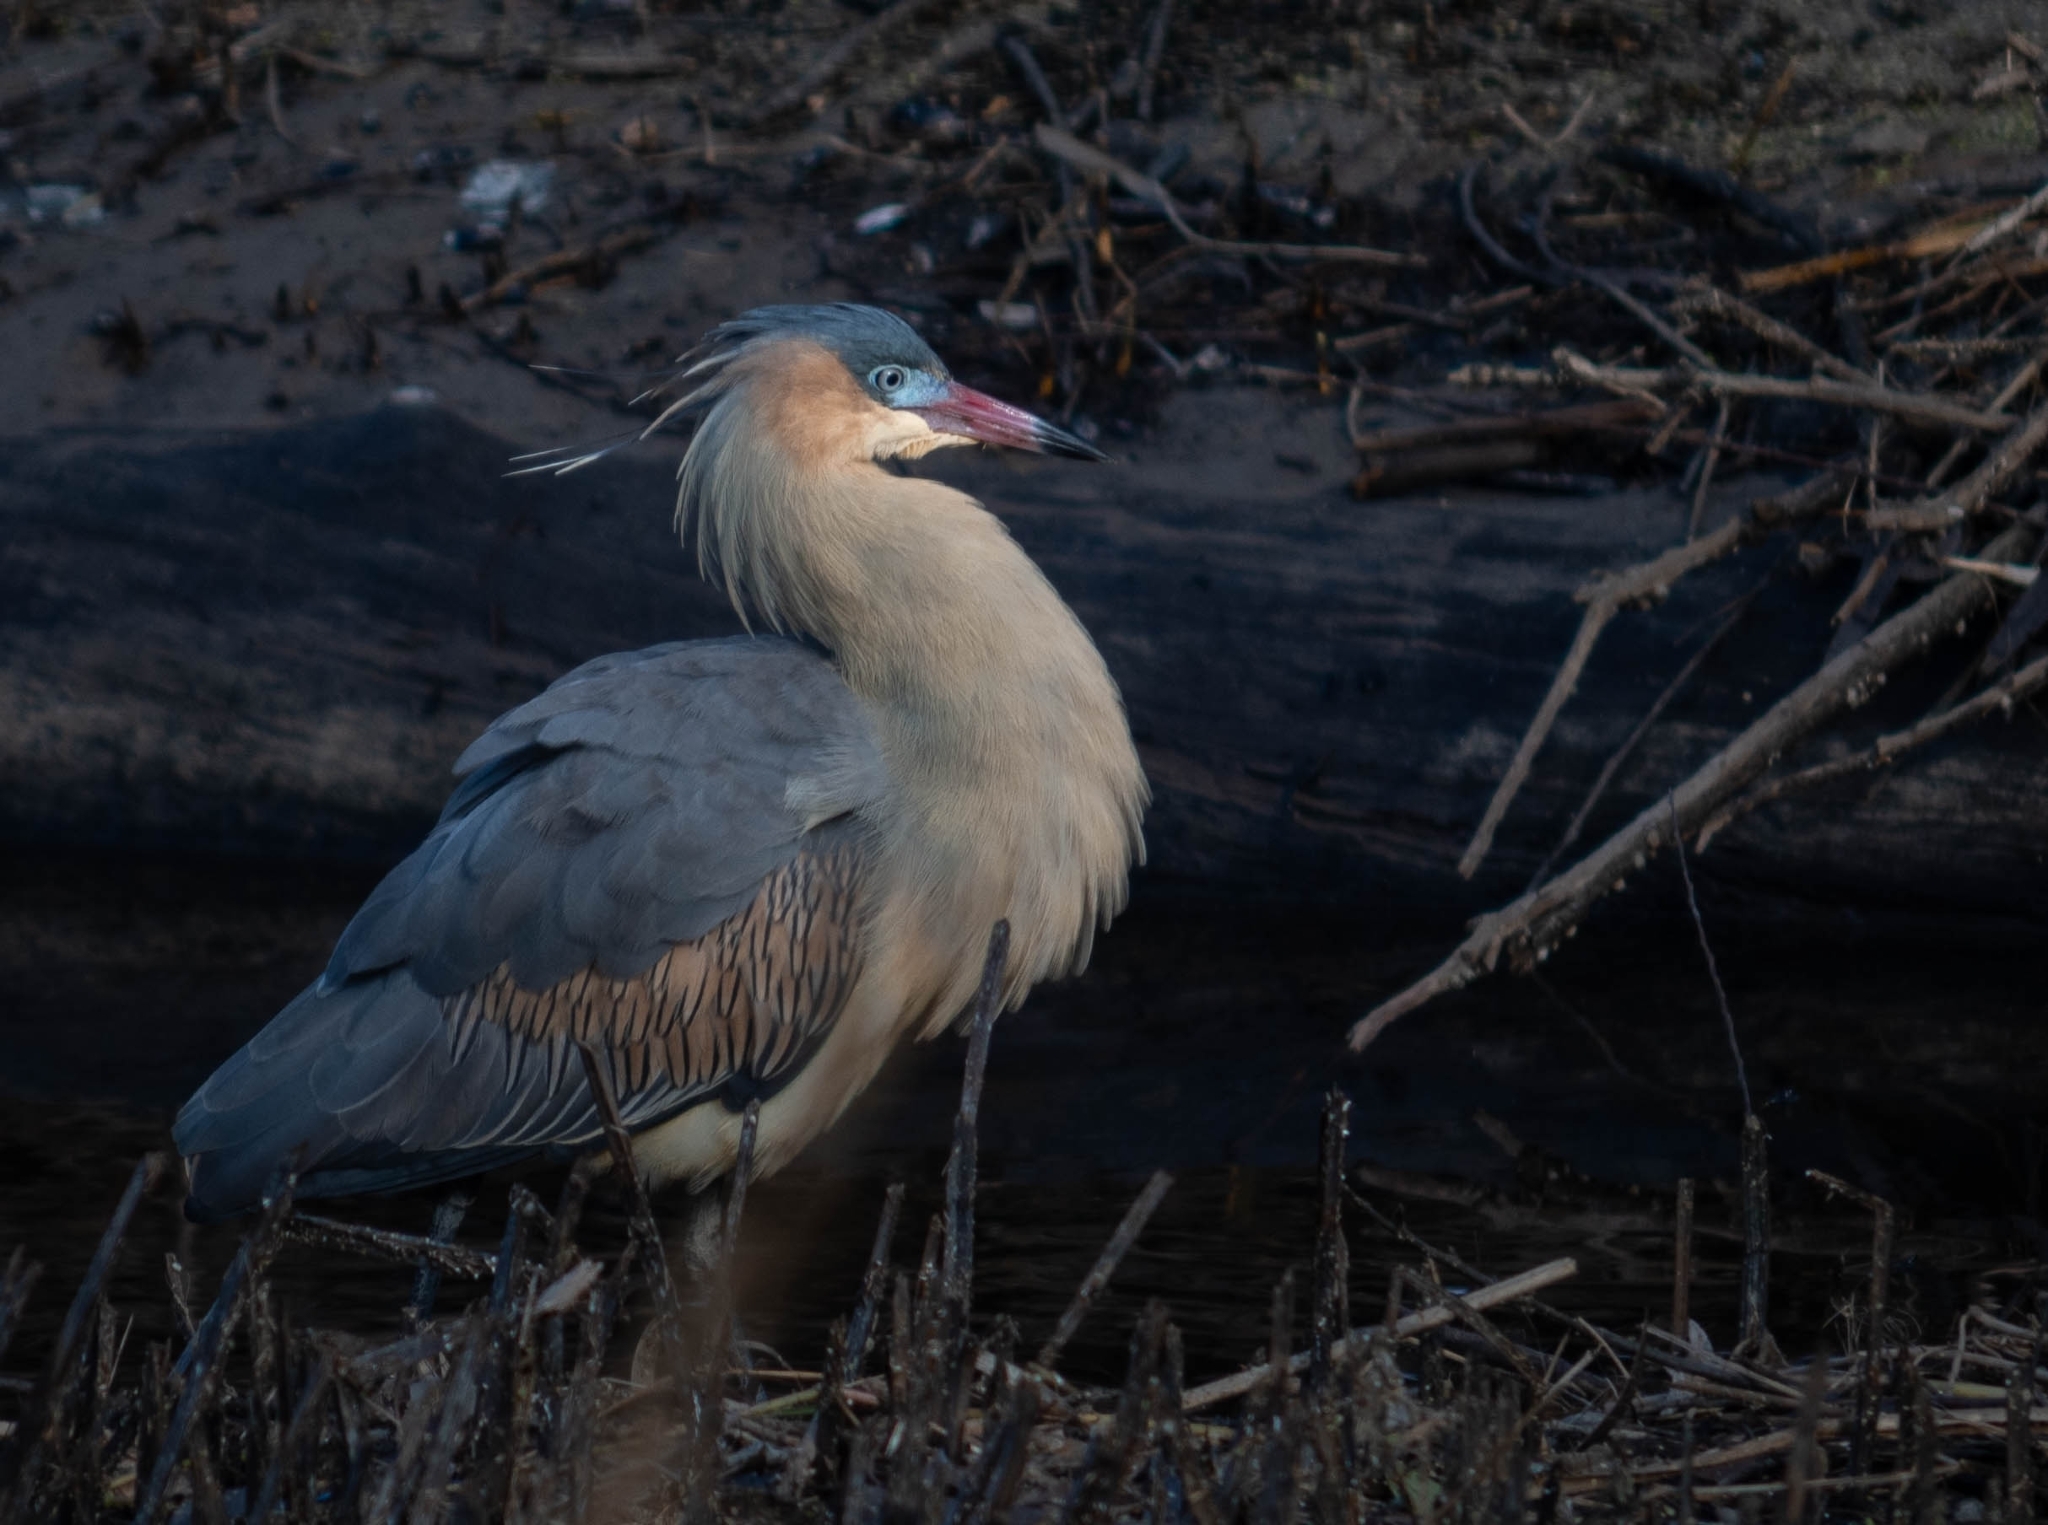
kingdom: Animalia
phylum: Chordata
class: Aves
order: Pelecaniformes
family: Ardeidae
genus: Syrigma
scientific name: Syrigma sibilatrix
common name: Whistling heron
